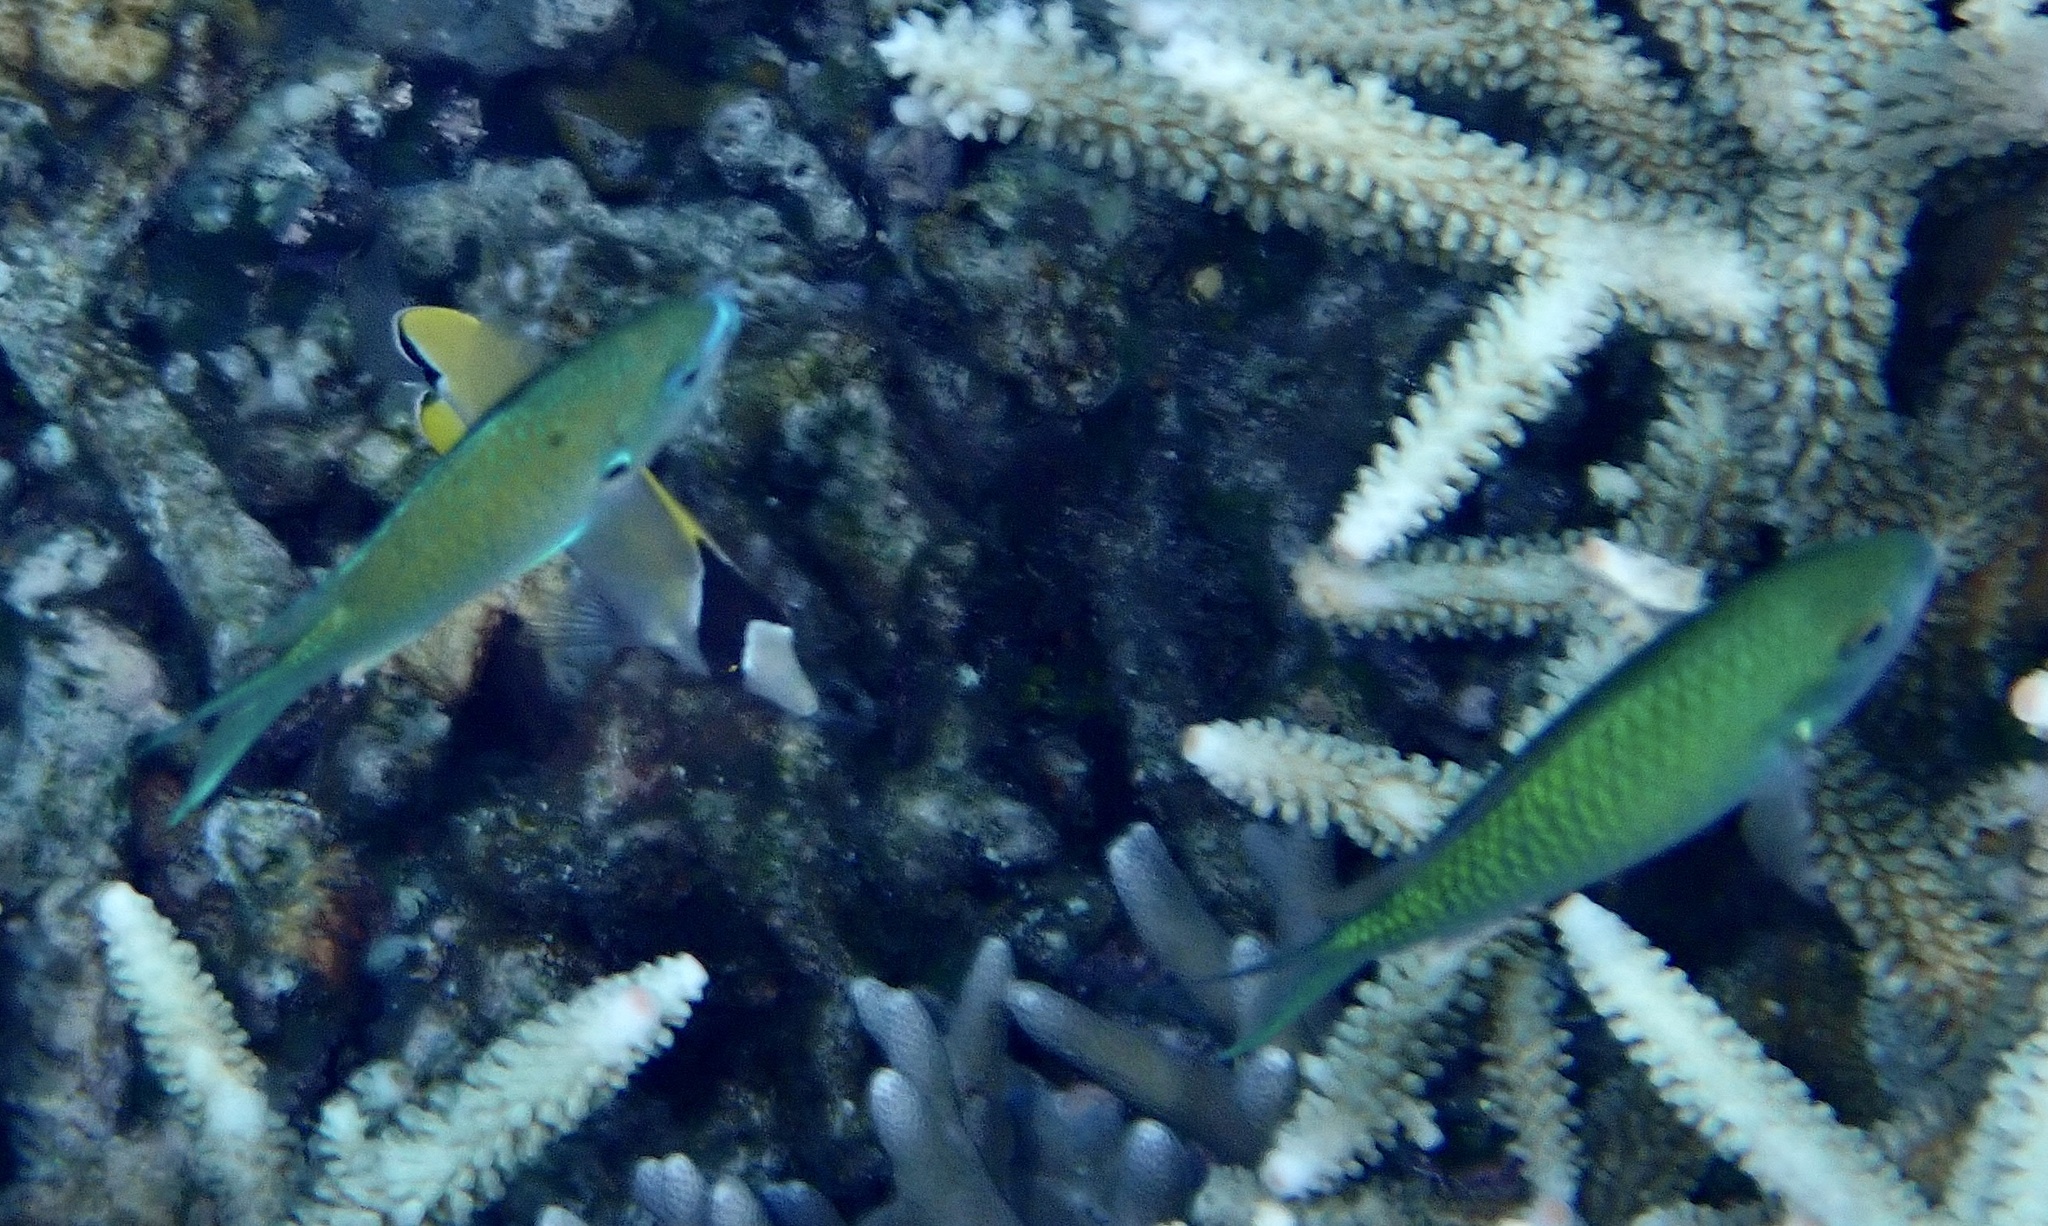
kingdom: Animalia
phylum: Chordata
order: Perciformes
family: Pomacentridae
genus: Chromis
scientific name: Chromis atripectoralis
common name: Black-axil chromis
